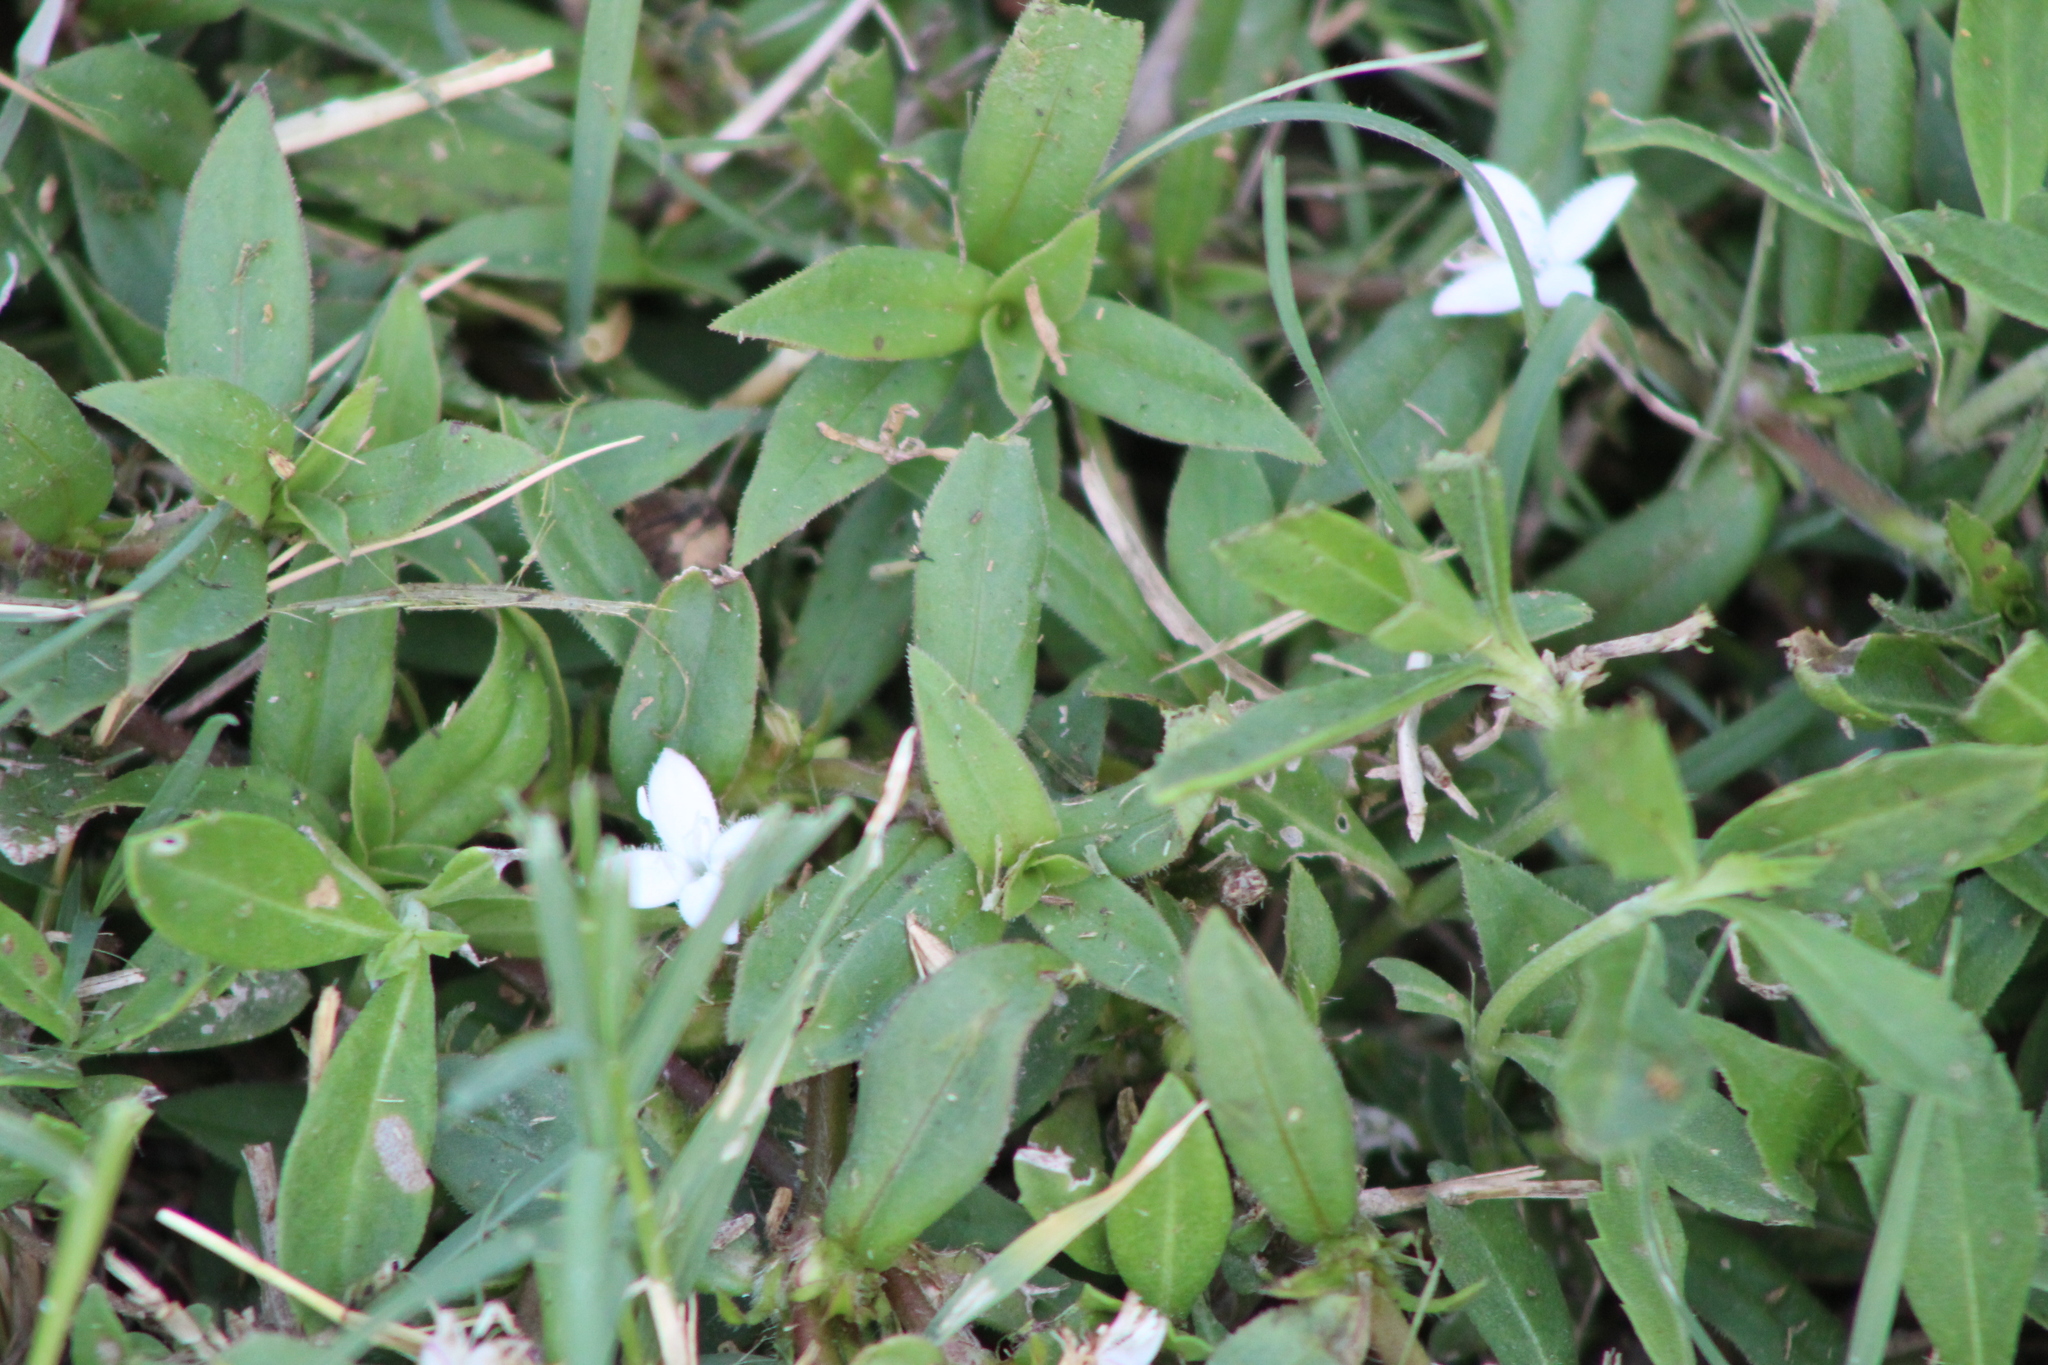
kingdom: Plantae
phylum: Tracheophyta
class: Magnoliopsida
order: Gentianales
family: Rubiaceae
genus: Diodia
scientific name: Diodia virginiana
